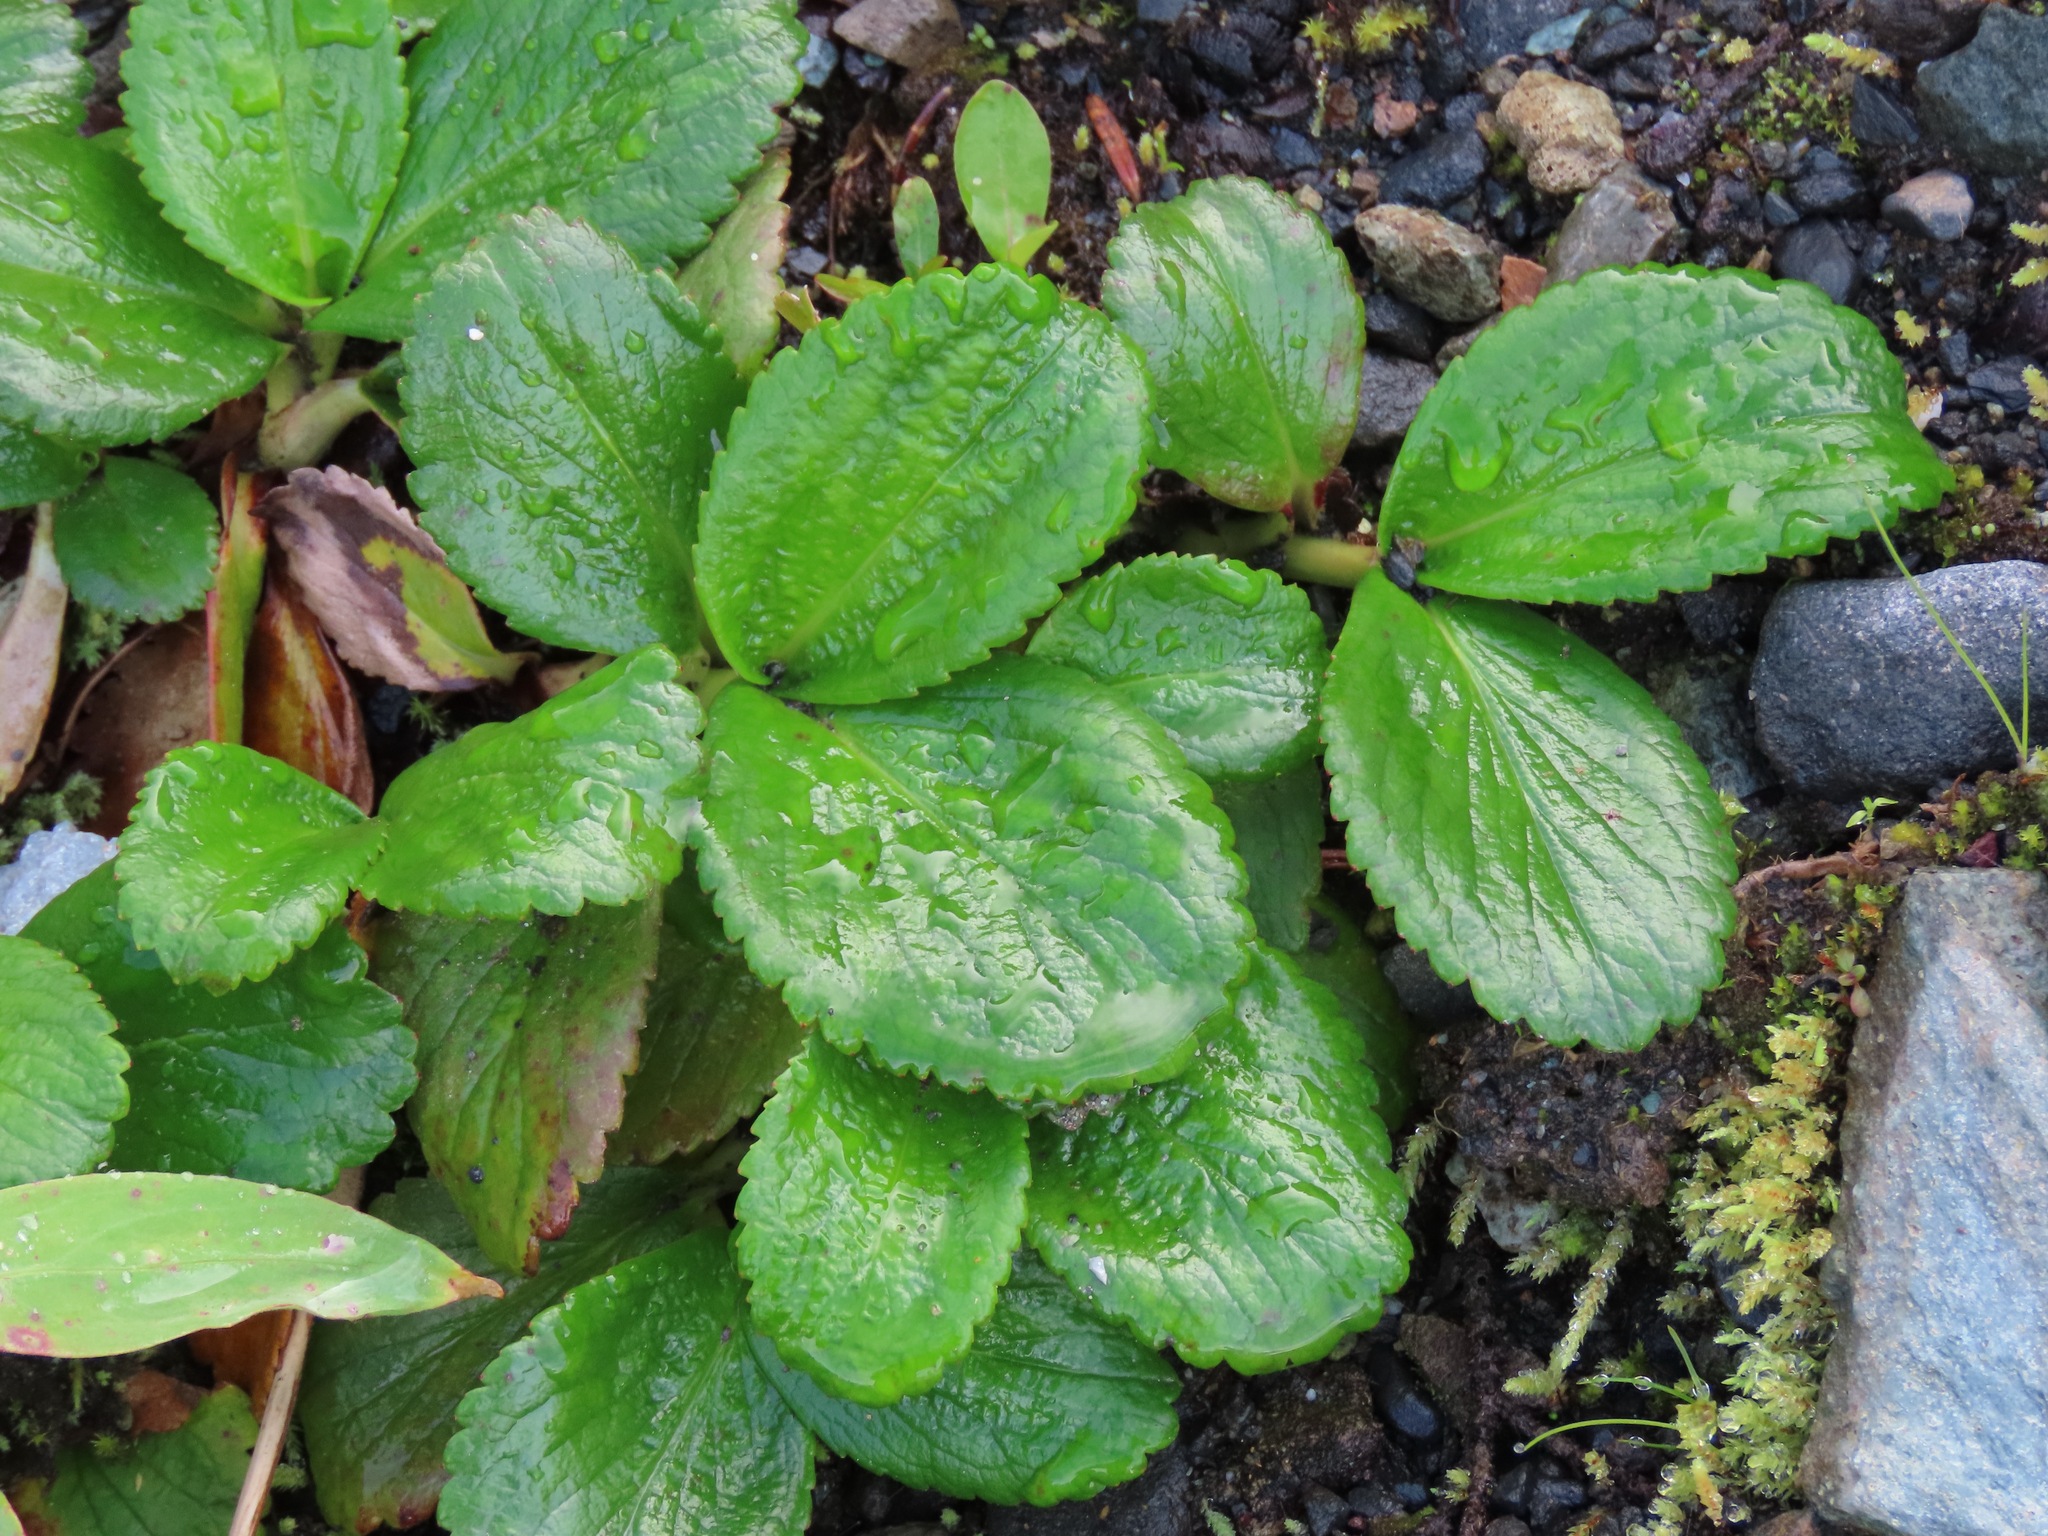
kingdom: Plantae
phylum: Tracheophyta
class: Magnoliopsida
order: Saxifragales
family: Saxifragaceae
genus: Leptarrhena
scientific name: Leptarrhena pyrolifolia
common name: Leatherleaf-saxifrage
